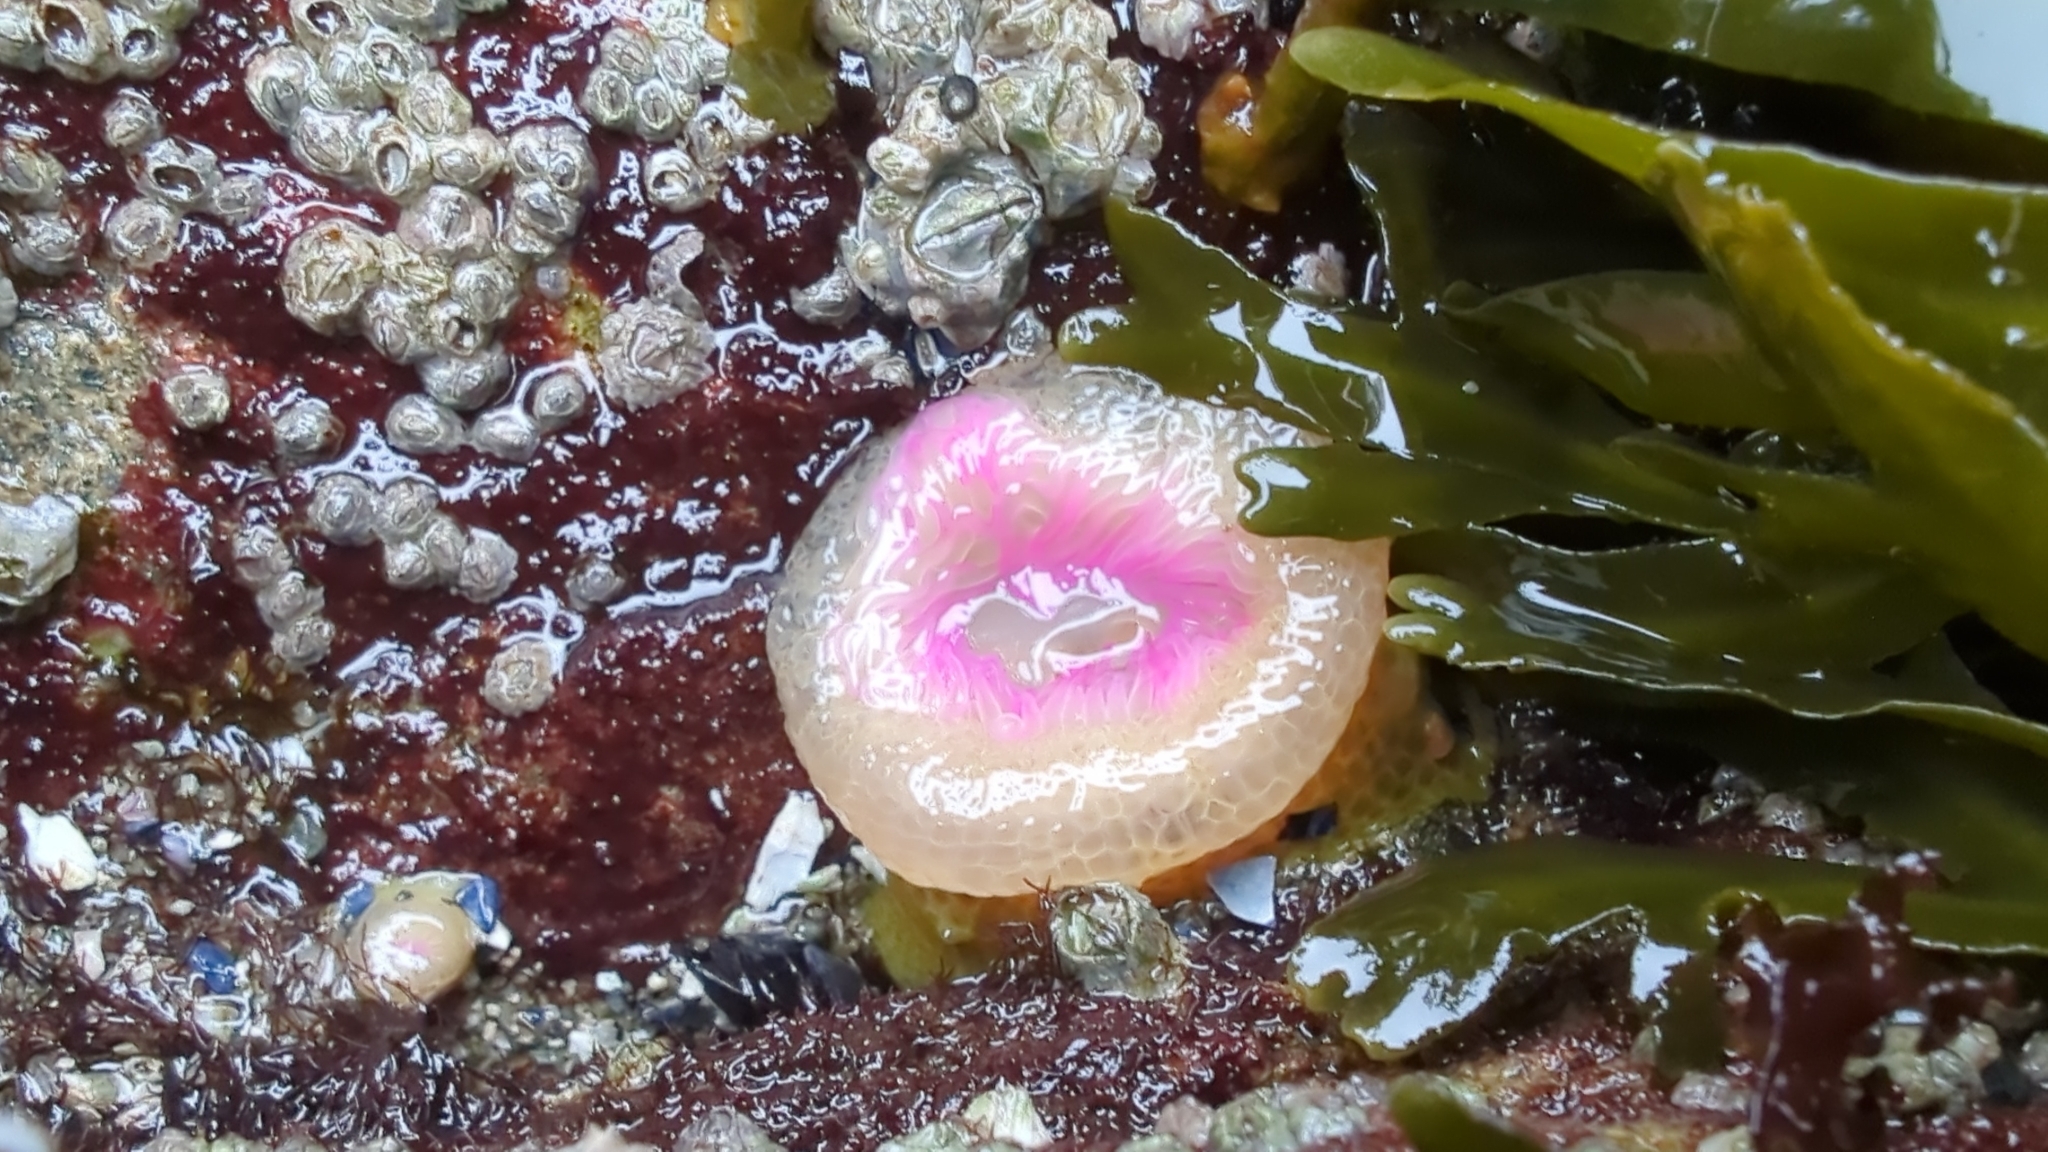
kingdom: Animalia
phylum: Cnidaria
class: Anthozoa
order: Actiniaria
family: Actiniidae
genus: Anthopleura
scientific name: Anthopleura elegantissima
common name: Clonal anemone
